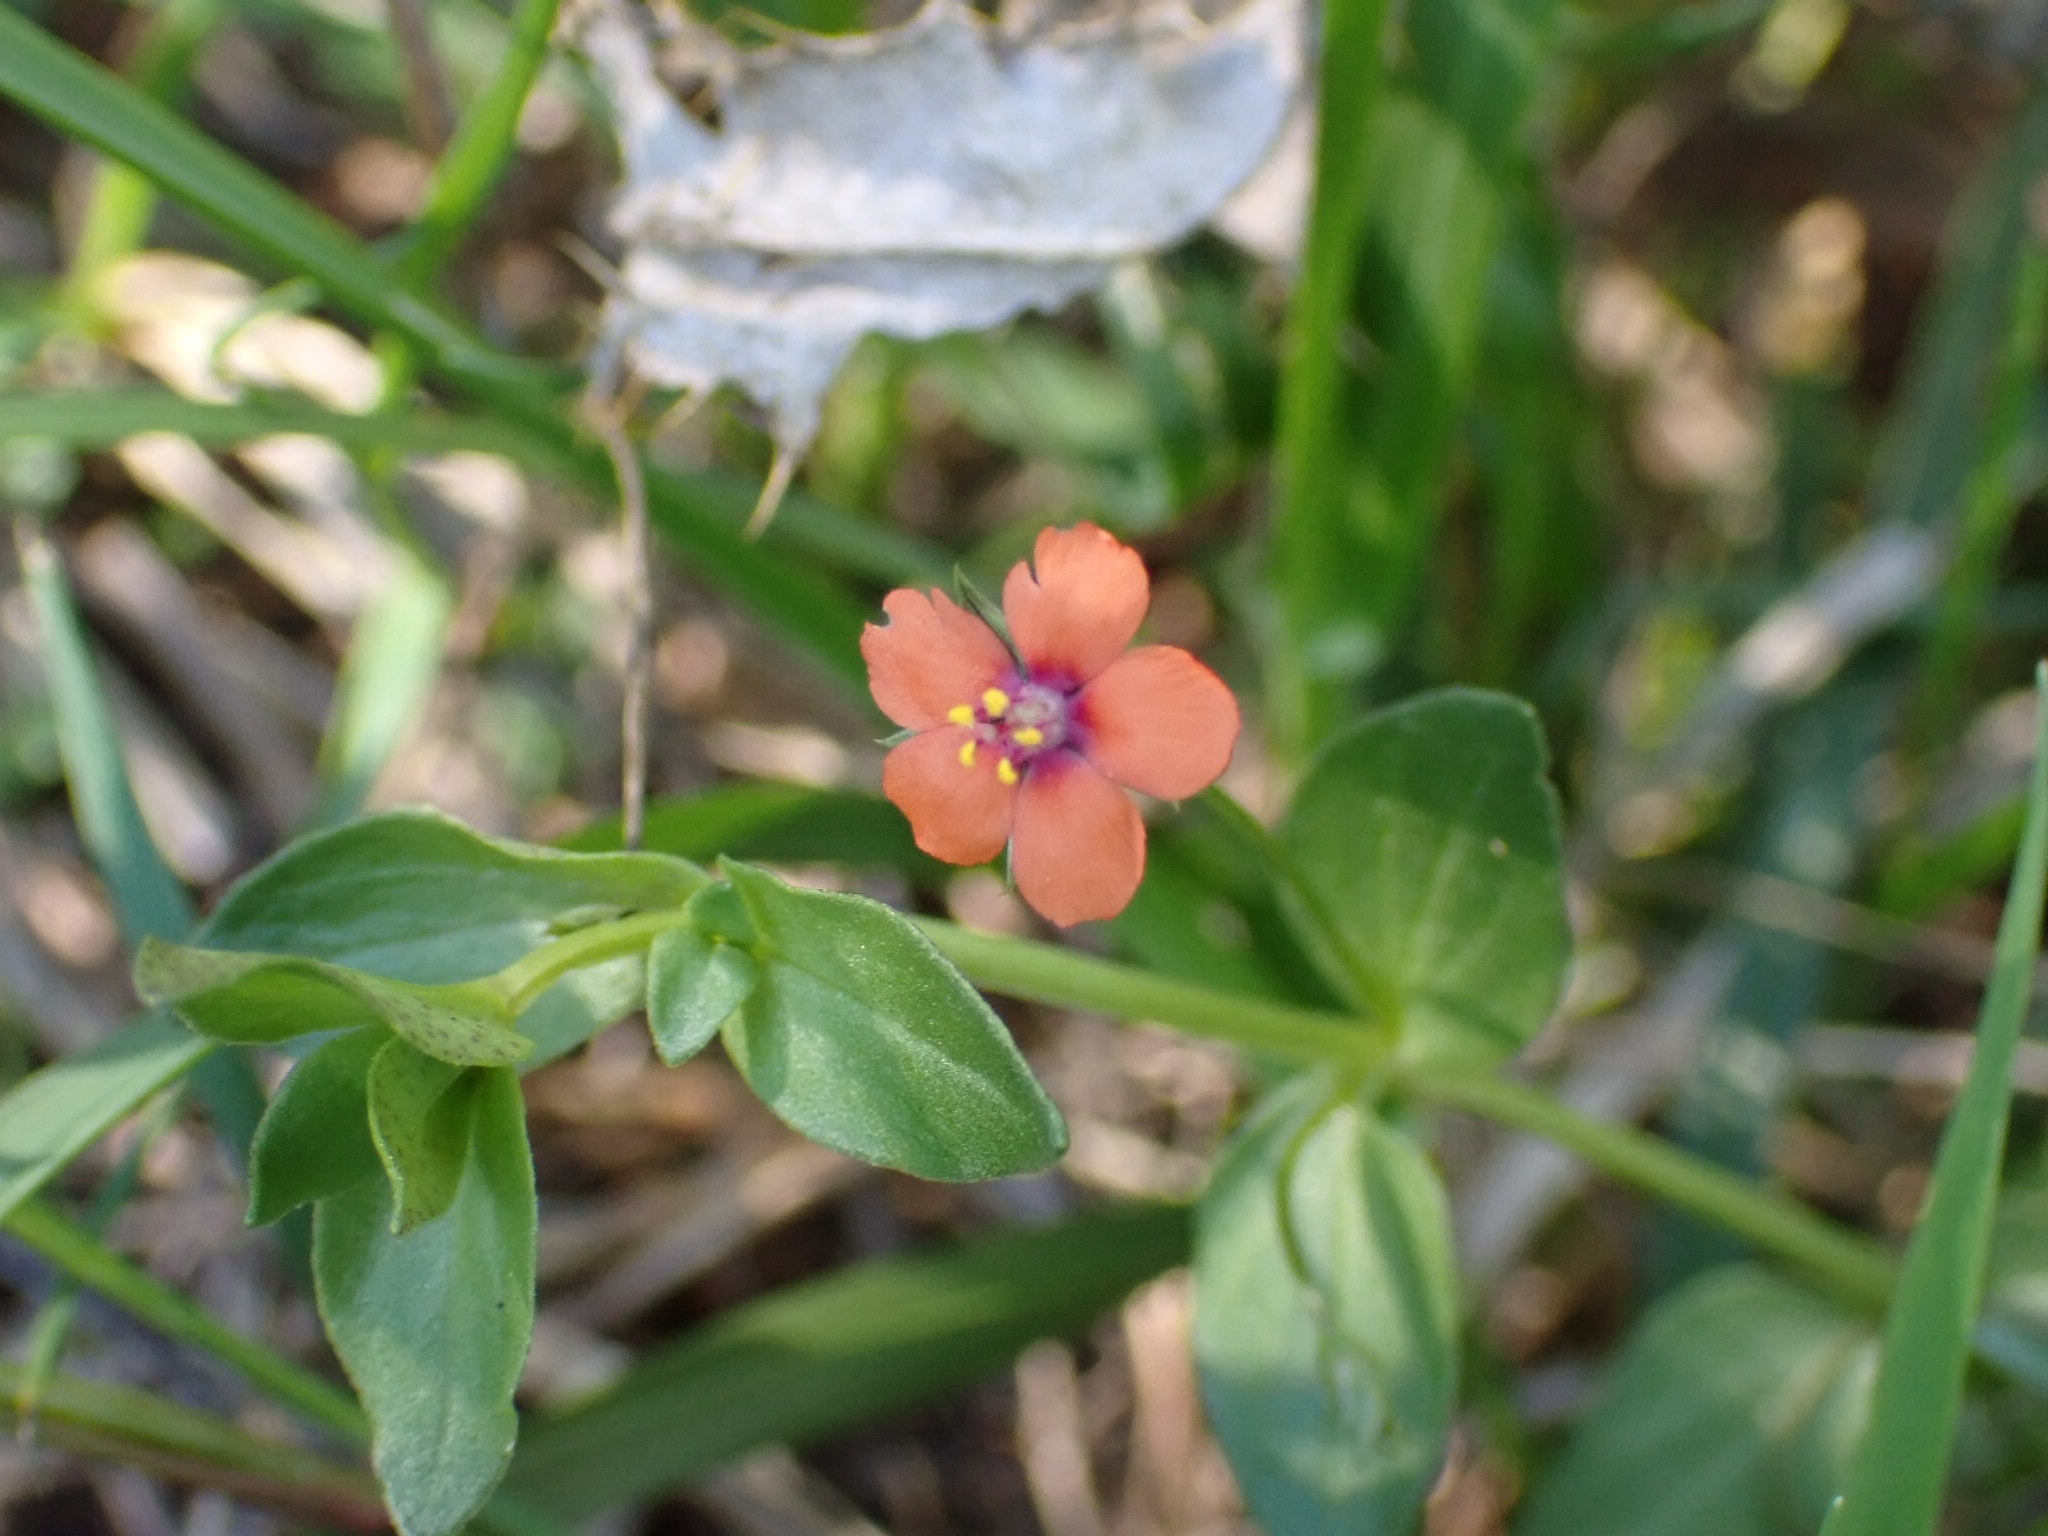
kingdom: Plantae
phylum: Tracheophyta
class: Magnoliopsida
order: Ericales
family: Primulaceae
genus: Lysimachia
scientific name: Lysimachia arvensis
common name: Scarlet pimpernel
